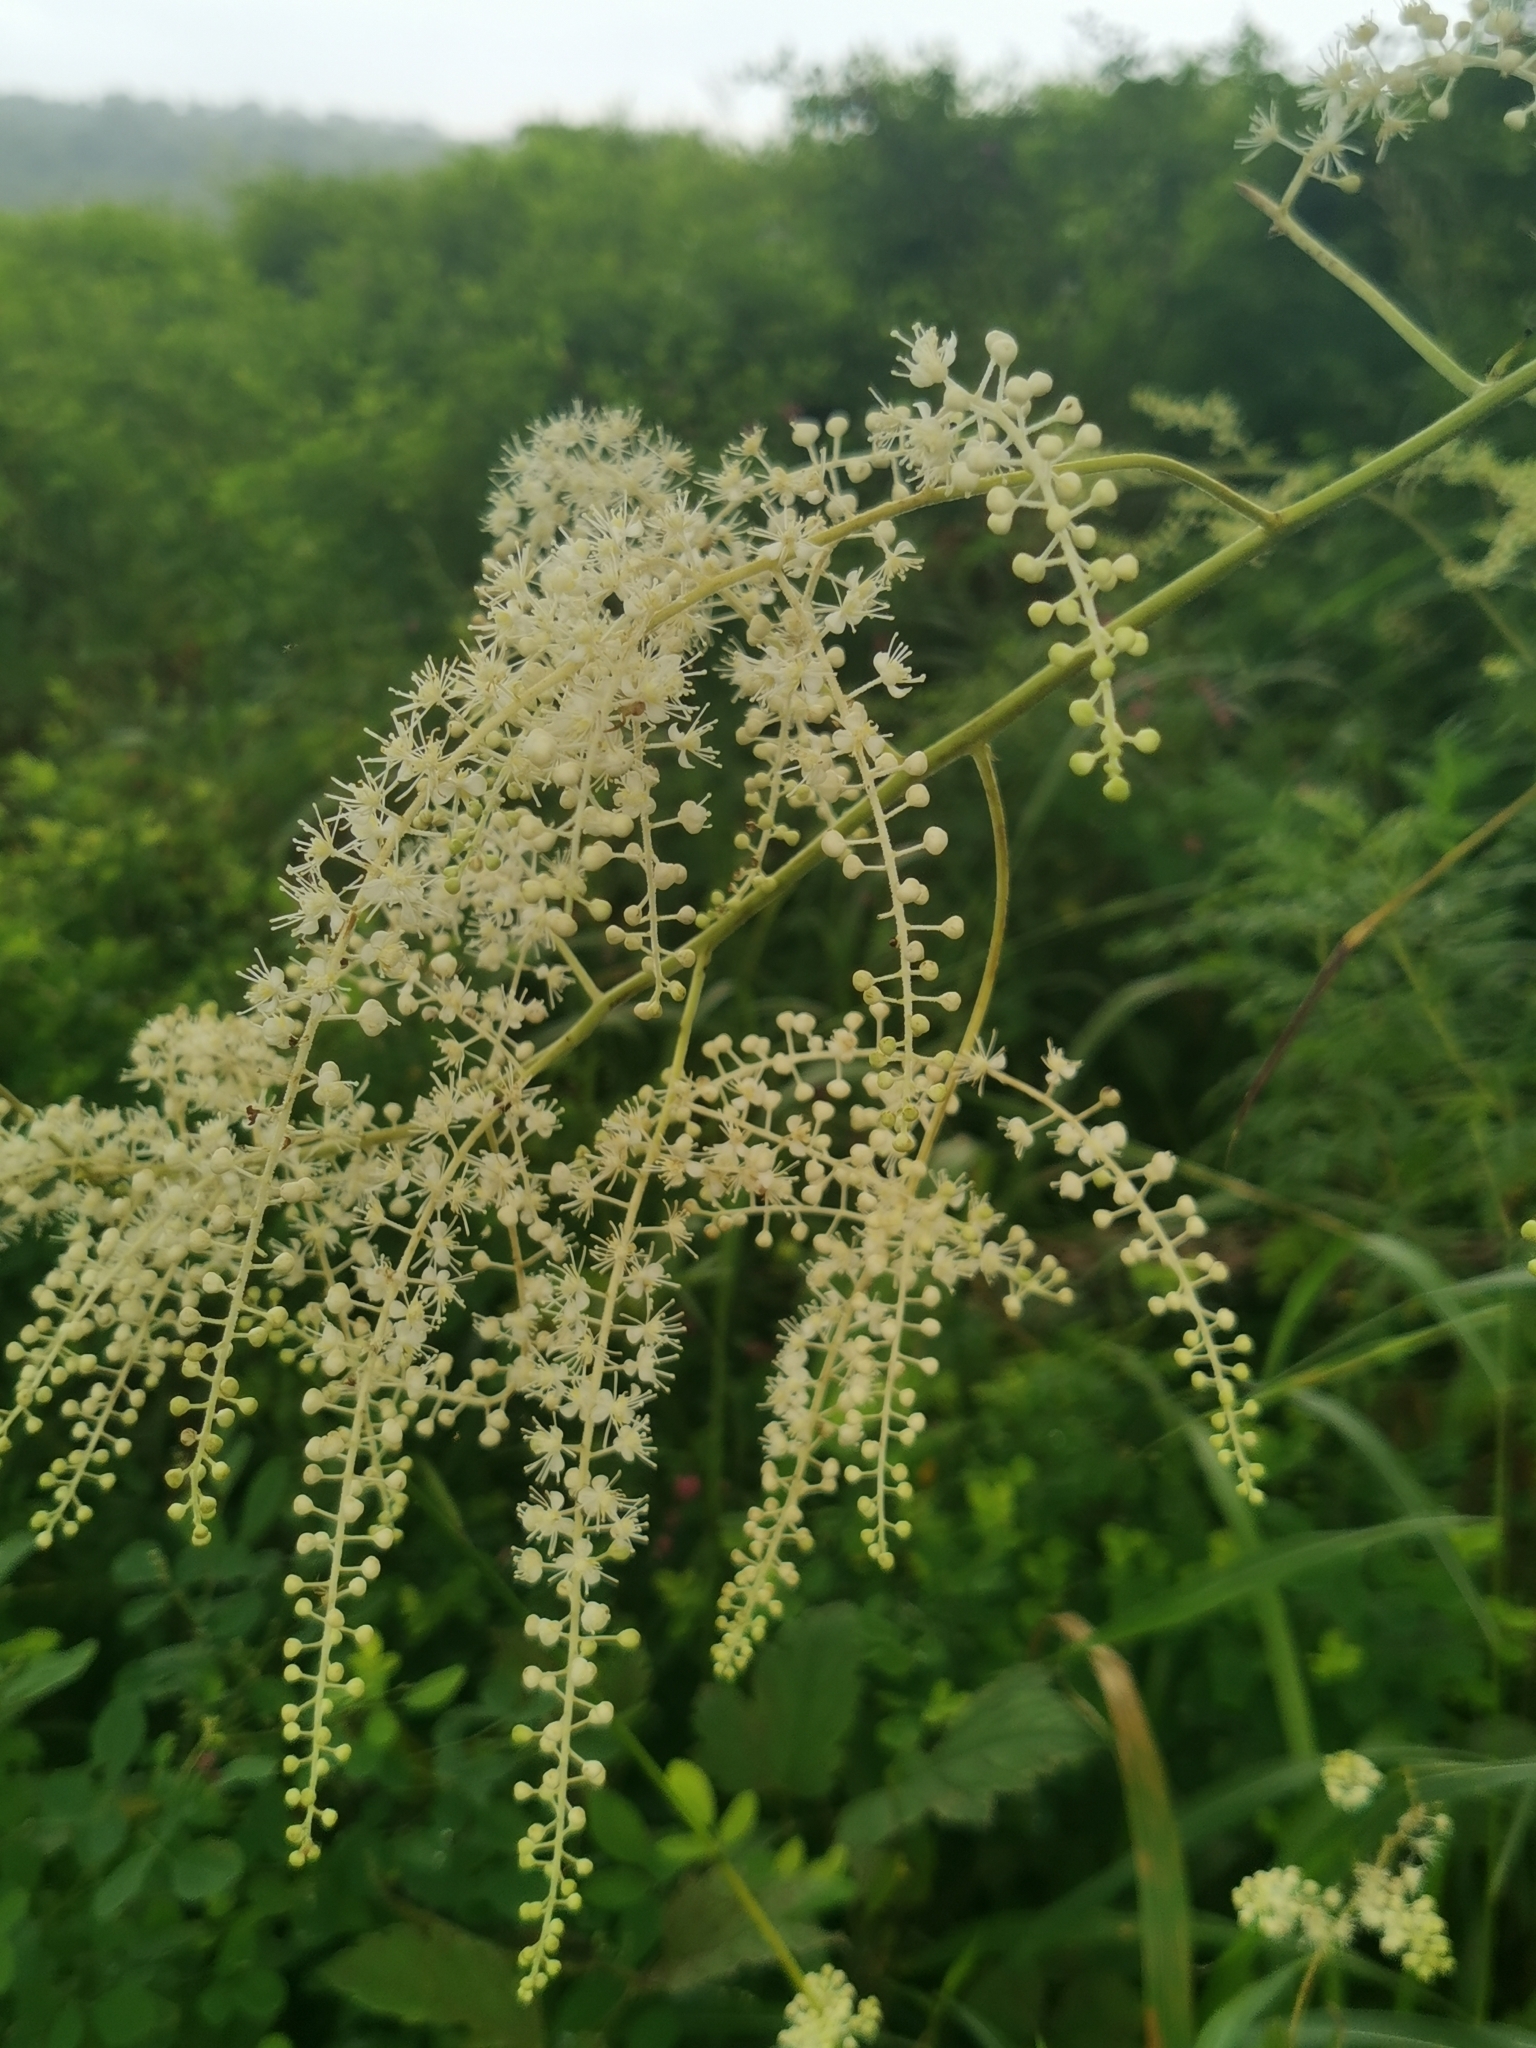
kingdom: Plantae
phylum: Tracheophyta
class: Magnoliopsida
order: Ranunculales
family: Ranunculaceae
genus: Actaea
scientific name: Actaea dahurica
